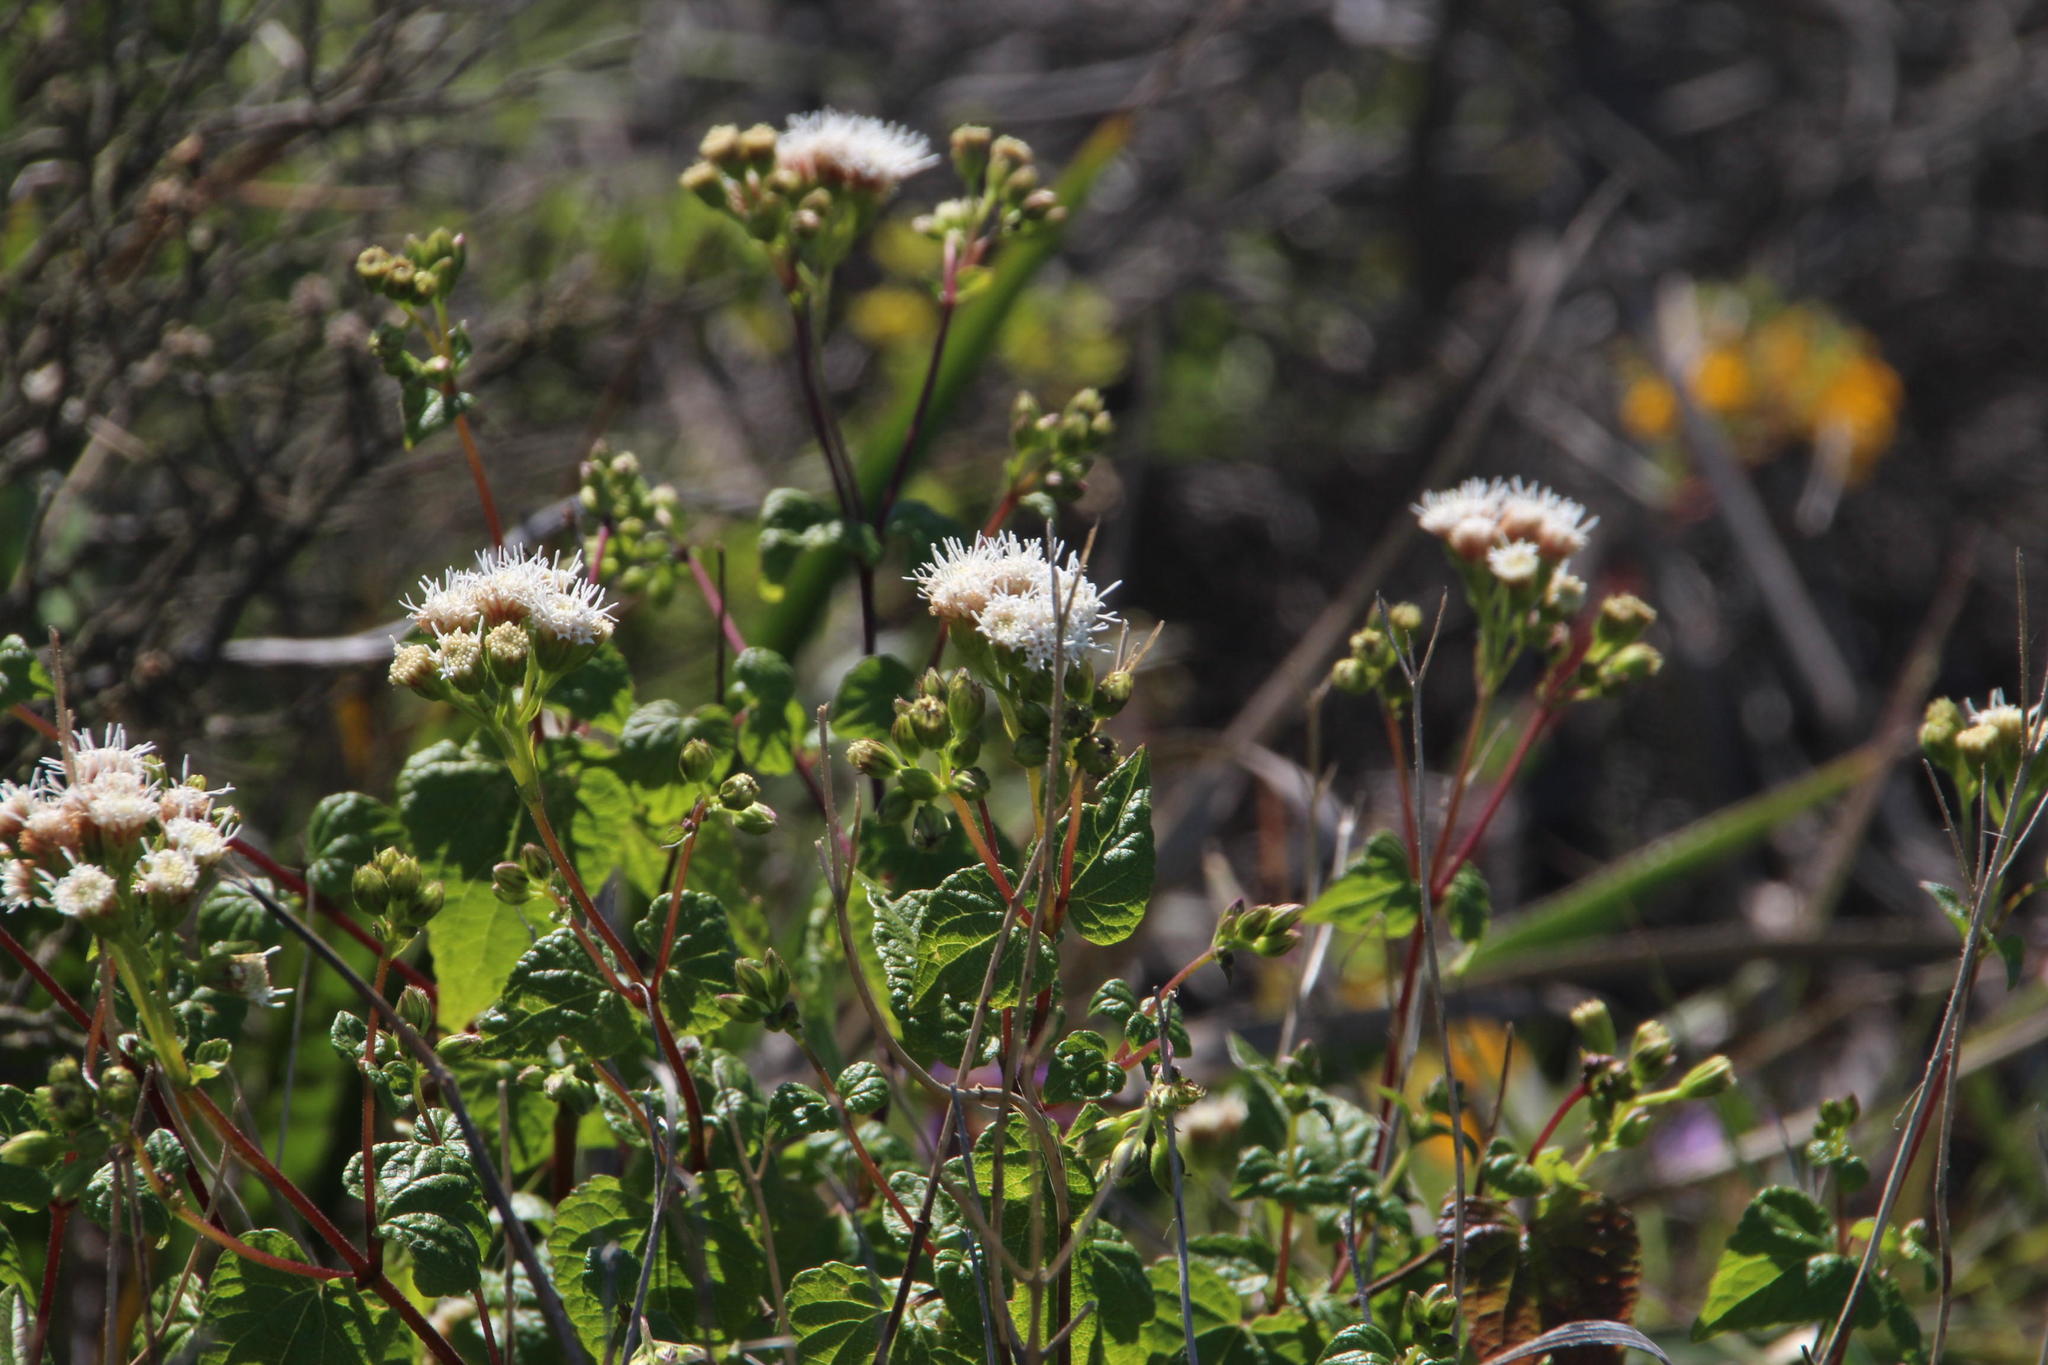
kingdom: Plantae
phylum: Tracheophyta
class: Magnoliopsida
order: Asterales
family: Asteraceae
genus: Ageratina
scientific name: Ageratina glechonophylla
